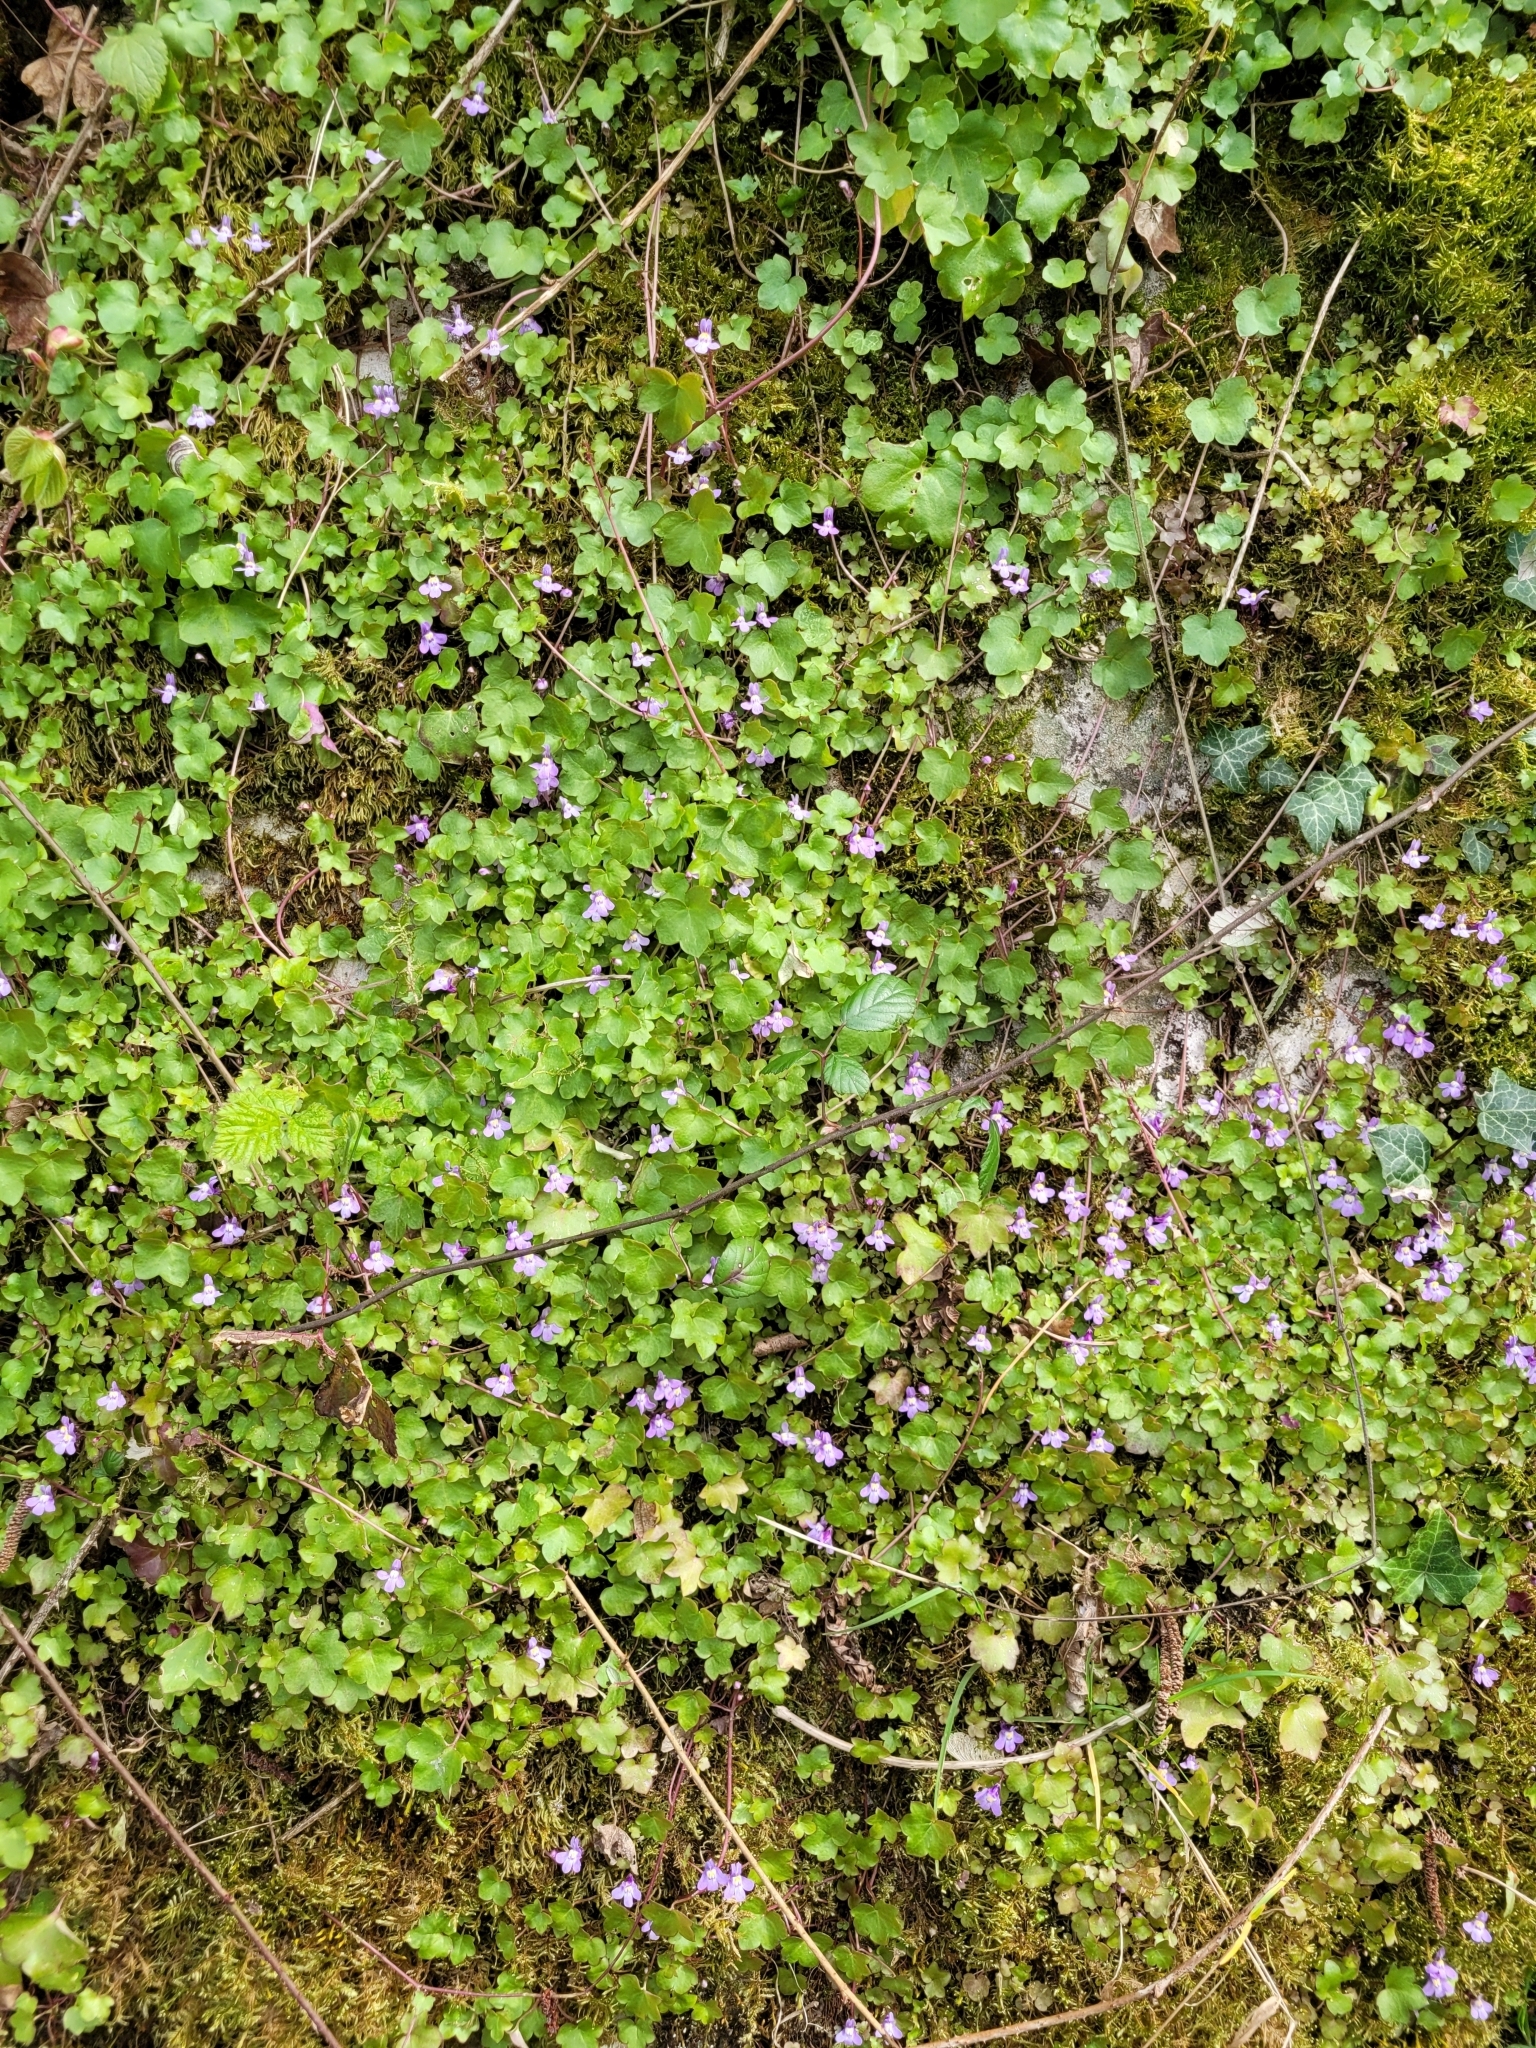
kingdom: Plantae
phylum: Tracheophyta
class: Magnoliopsida
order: Lamiales
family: Plantaginaceae
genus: Cymbalaria
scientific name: Cymbalaria muralis
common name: Ivy-leaved toadflax
